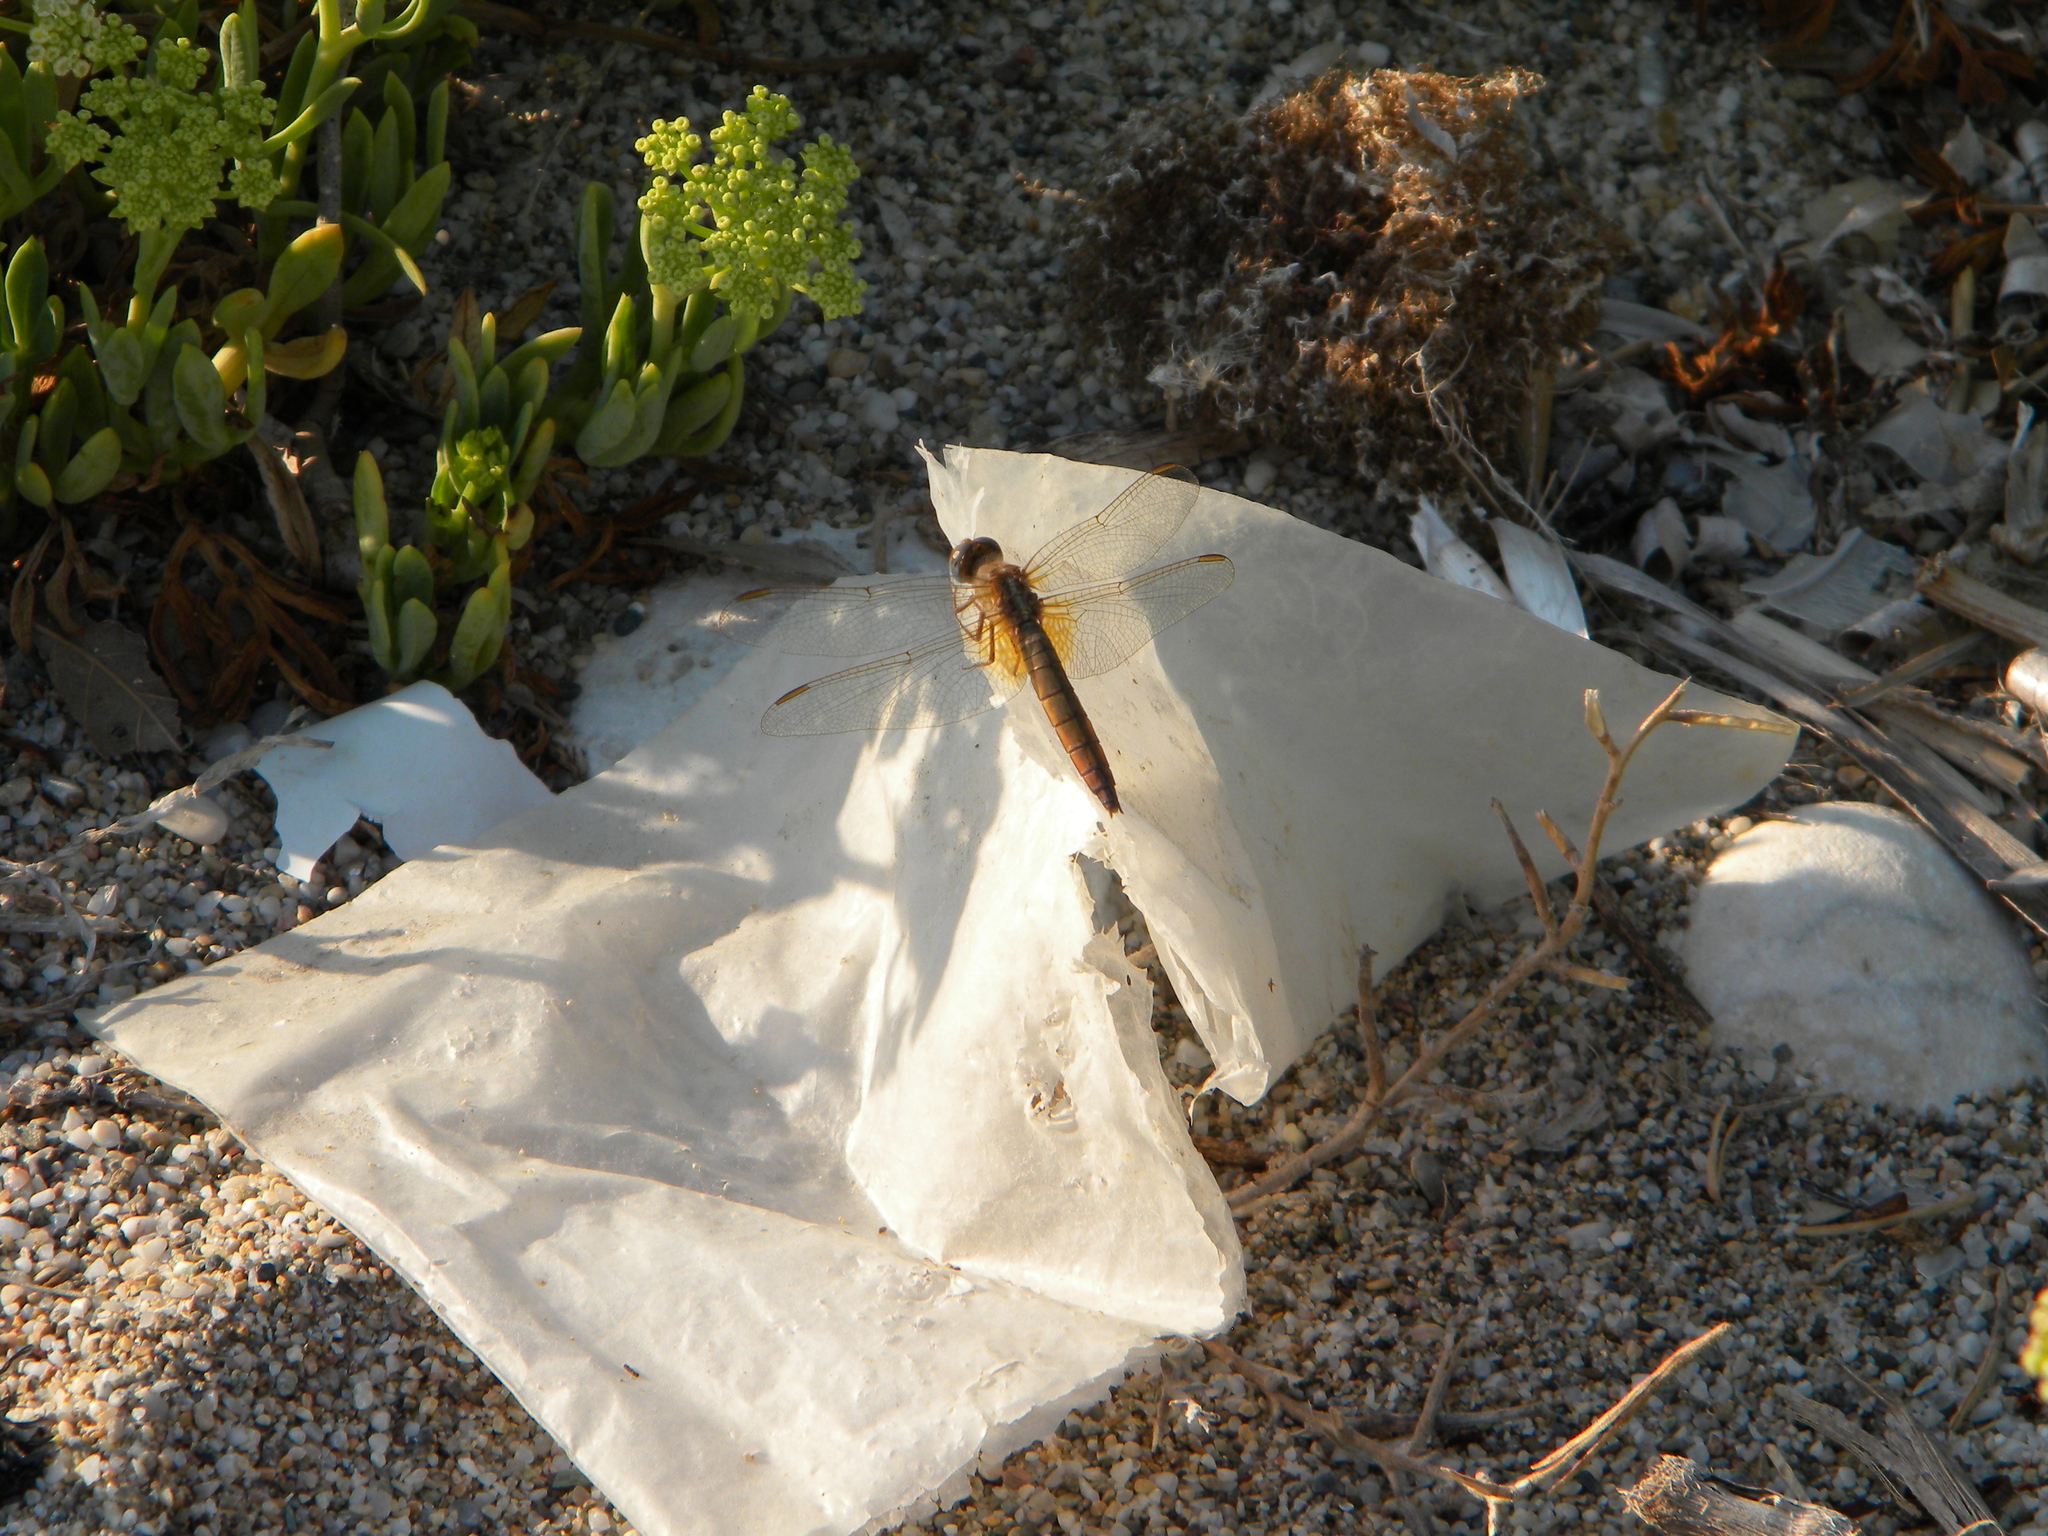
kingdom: Animalia
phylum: Arthropoda
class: Insecta
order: Odonata
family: Libellulidae
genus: Crocothemis
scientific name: Crocothemis erythraea
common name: Scarlet dragonfly
